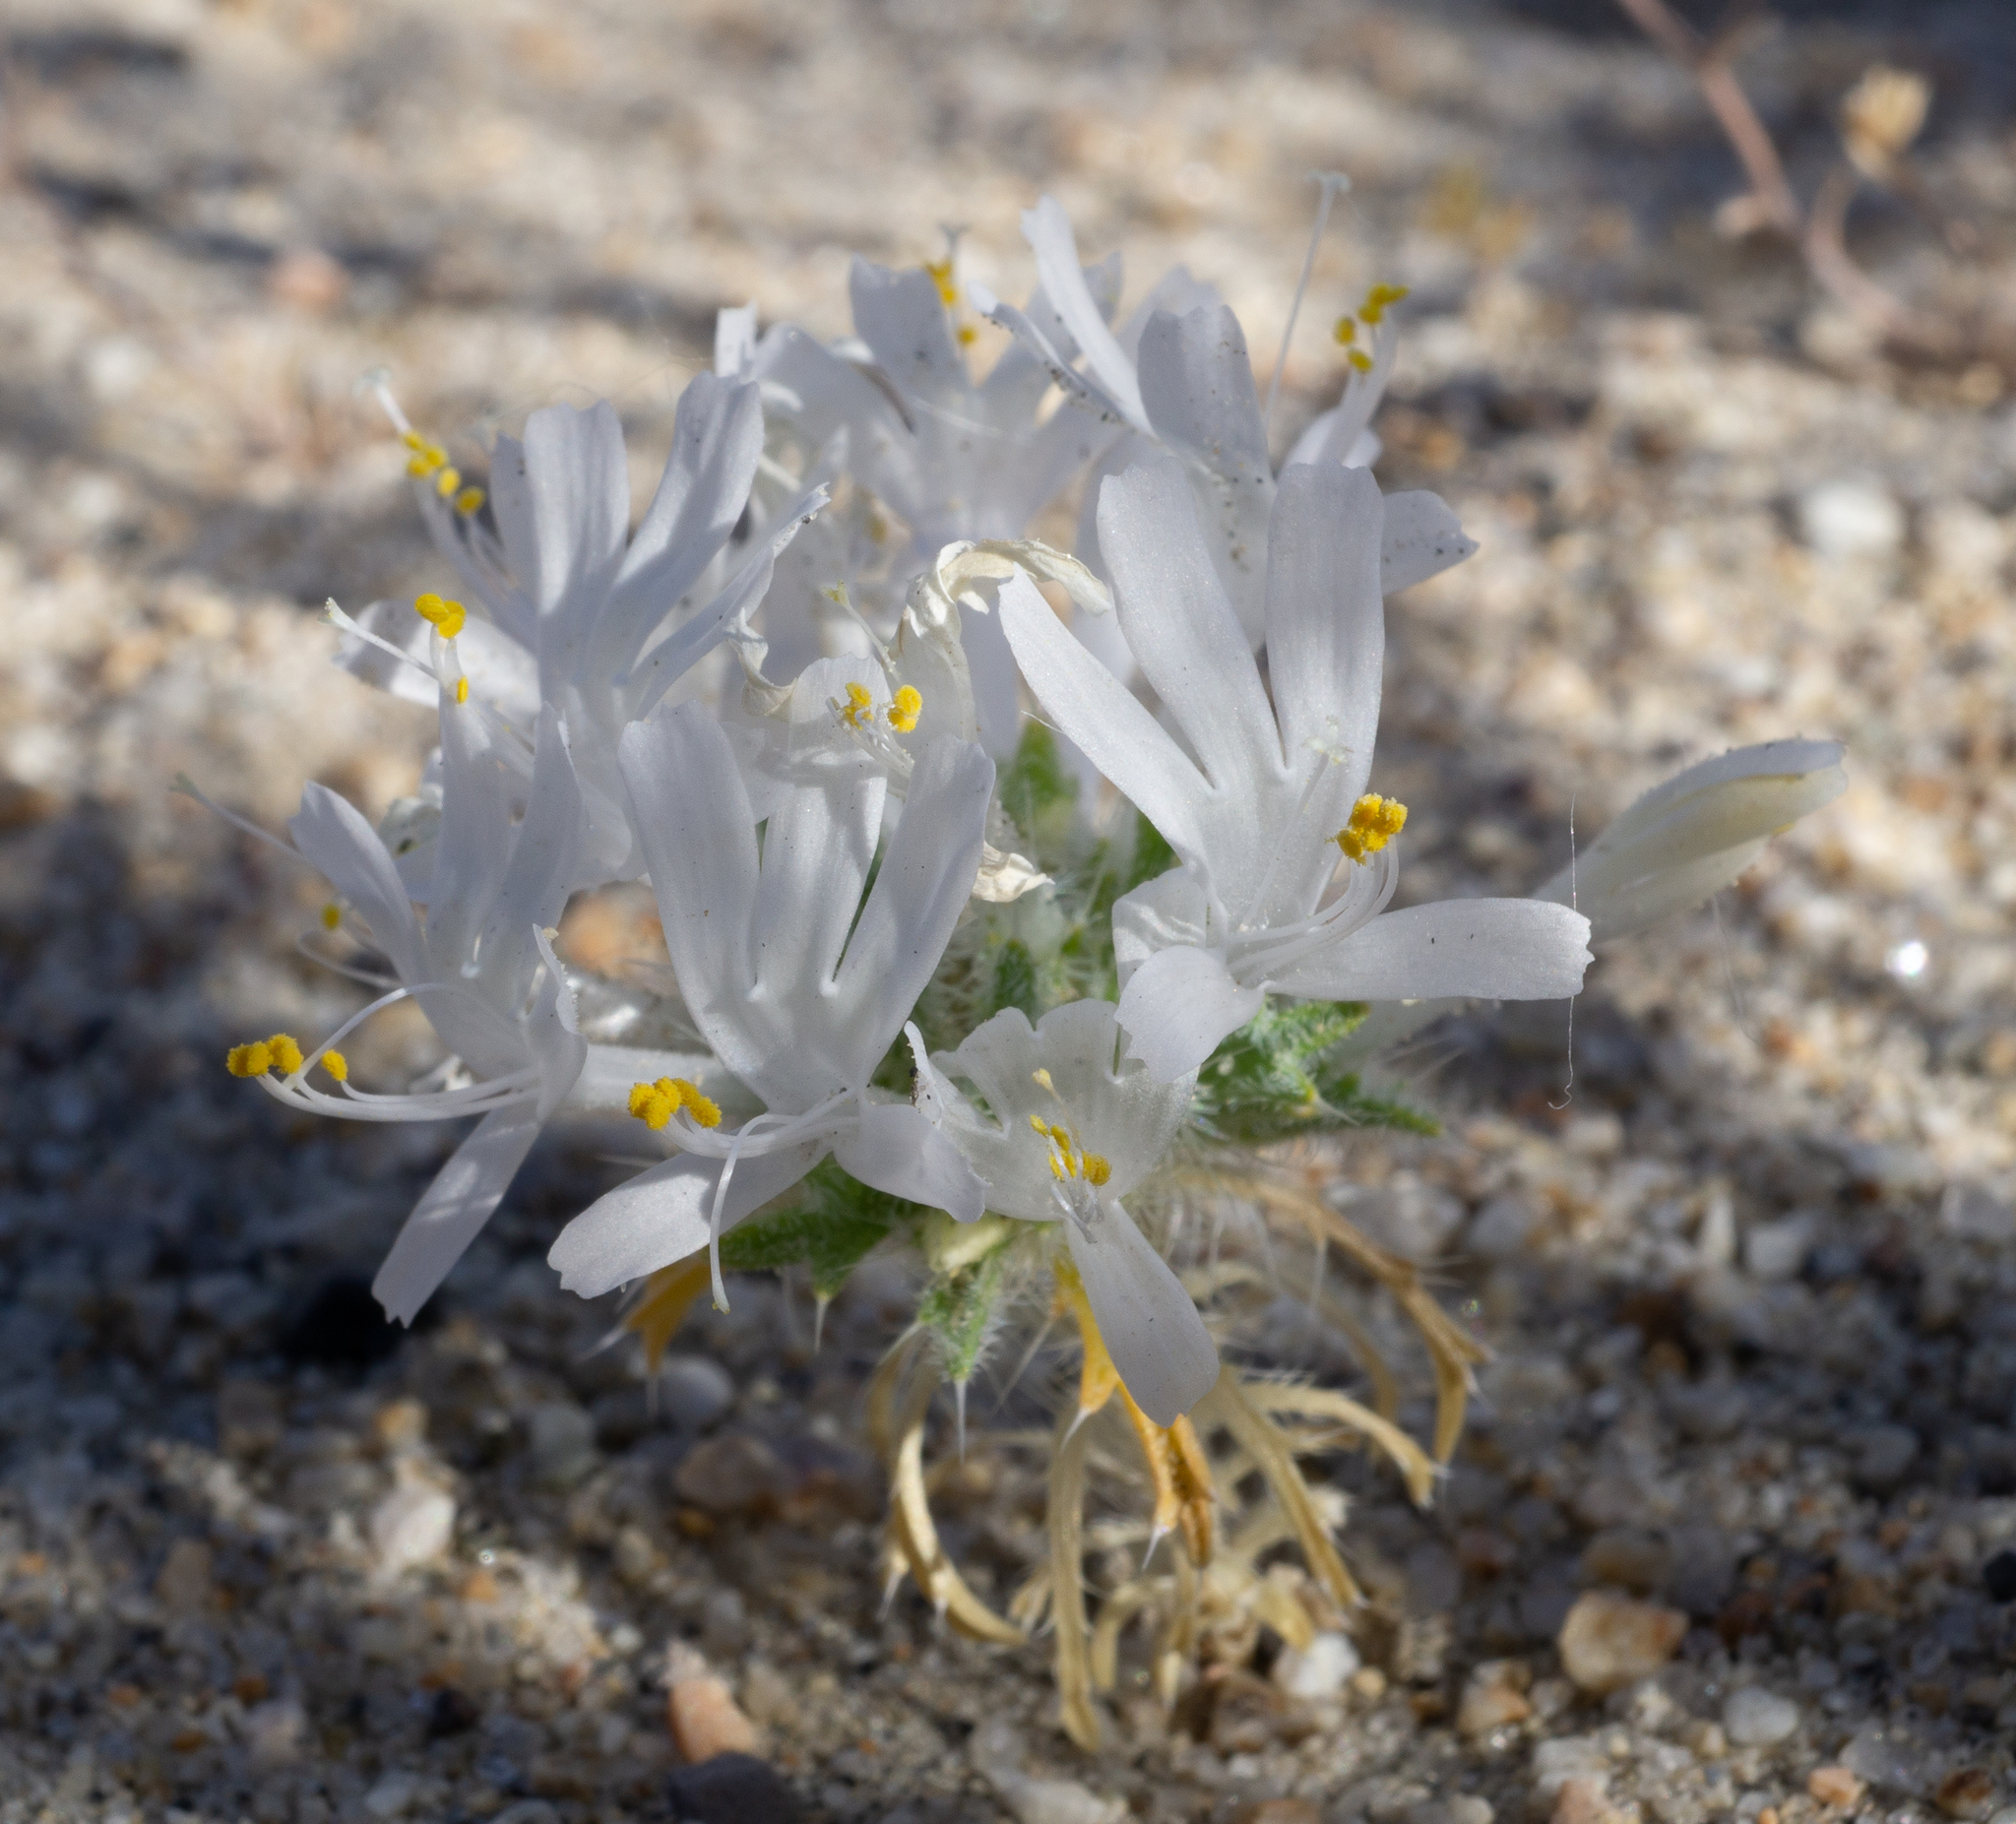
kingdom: Plantae
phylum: Tracheophyta
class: Magnoliopsida
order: Ericales
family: Polemoniaceae
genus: Loeseliastrum
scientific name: Loeseliastrum matthewsii
